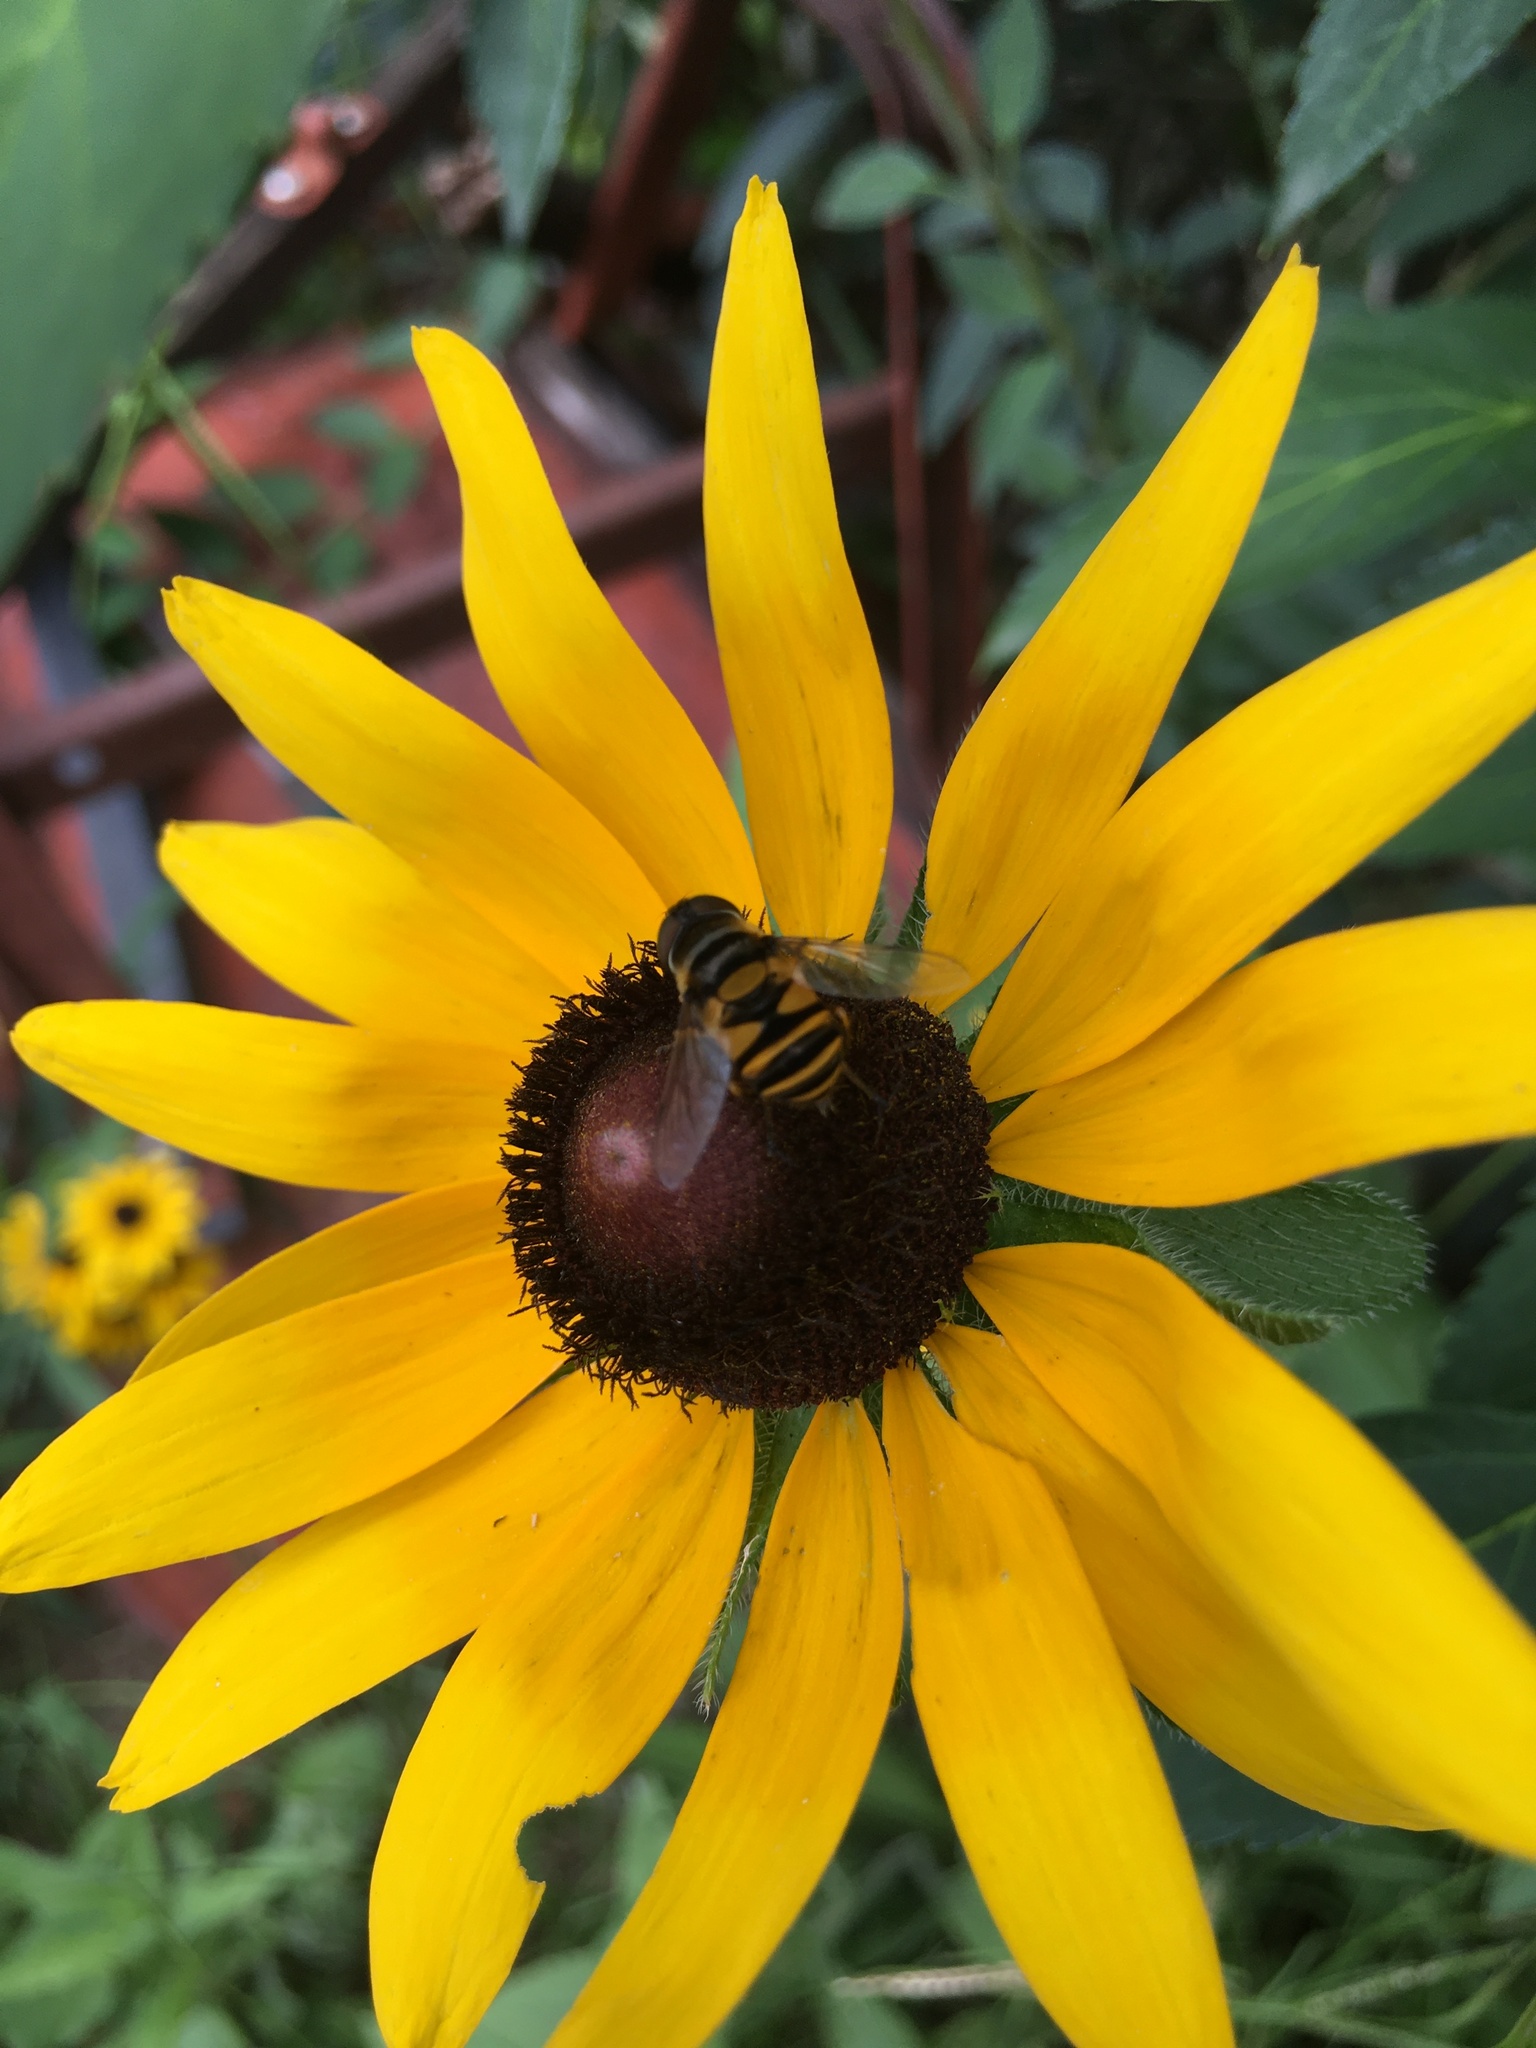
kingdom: Animalia
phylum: Arthropoda
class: Insecta
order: Diptera
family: Syrphidae
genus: Eristalis
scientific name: Eristalis transversa
